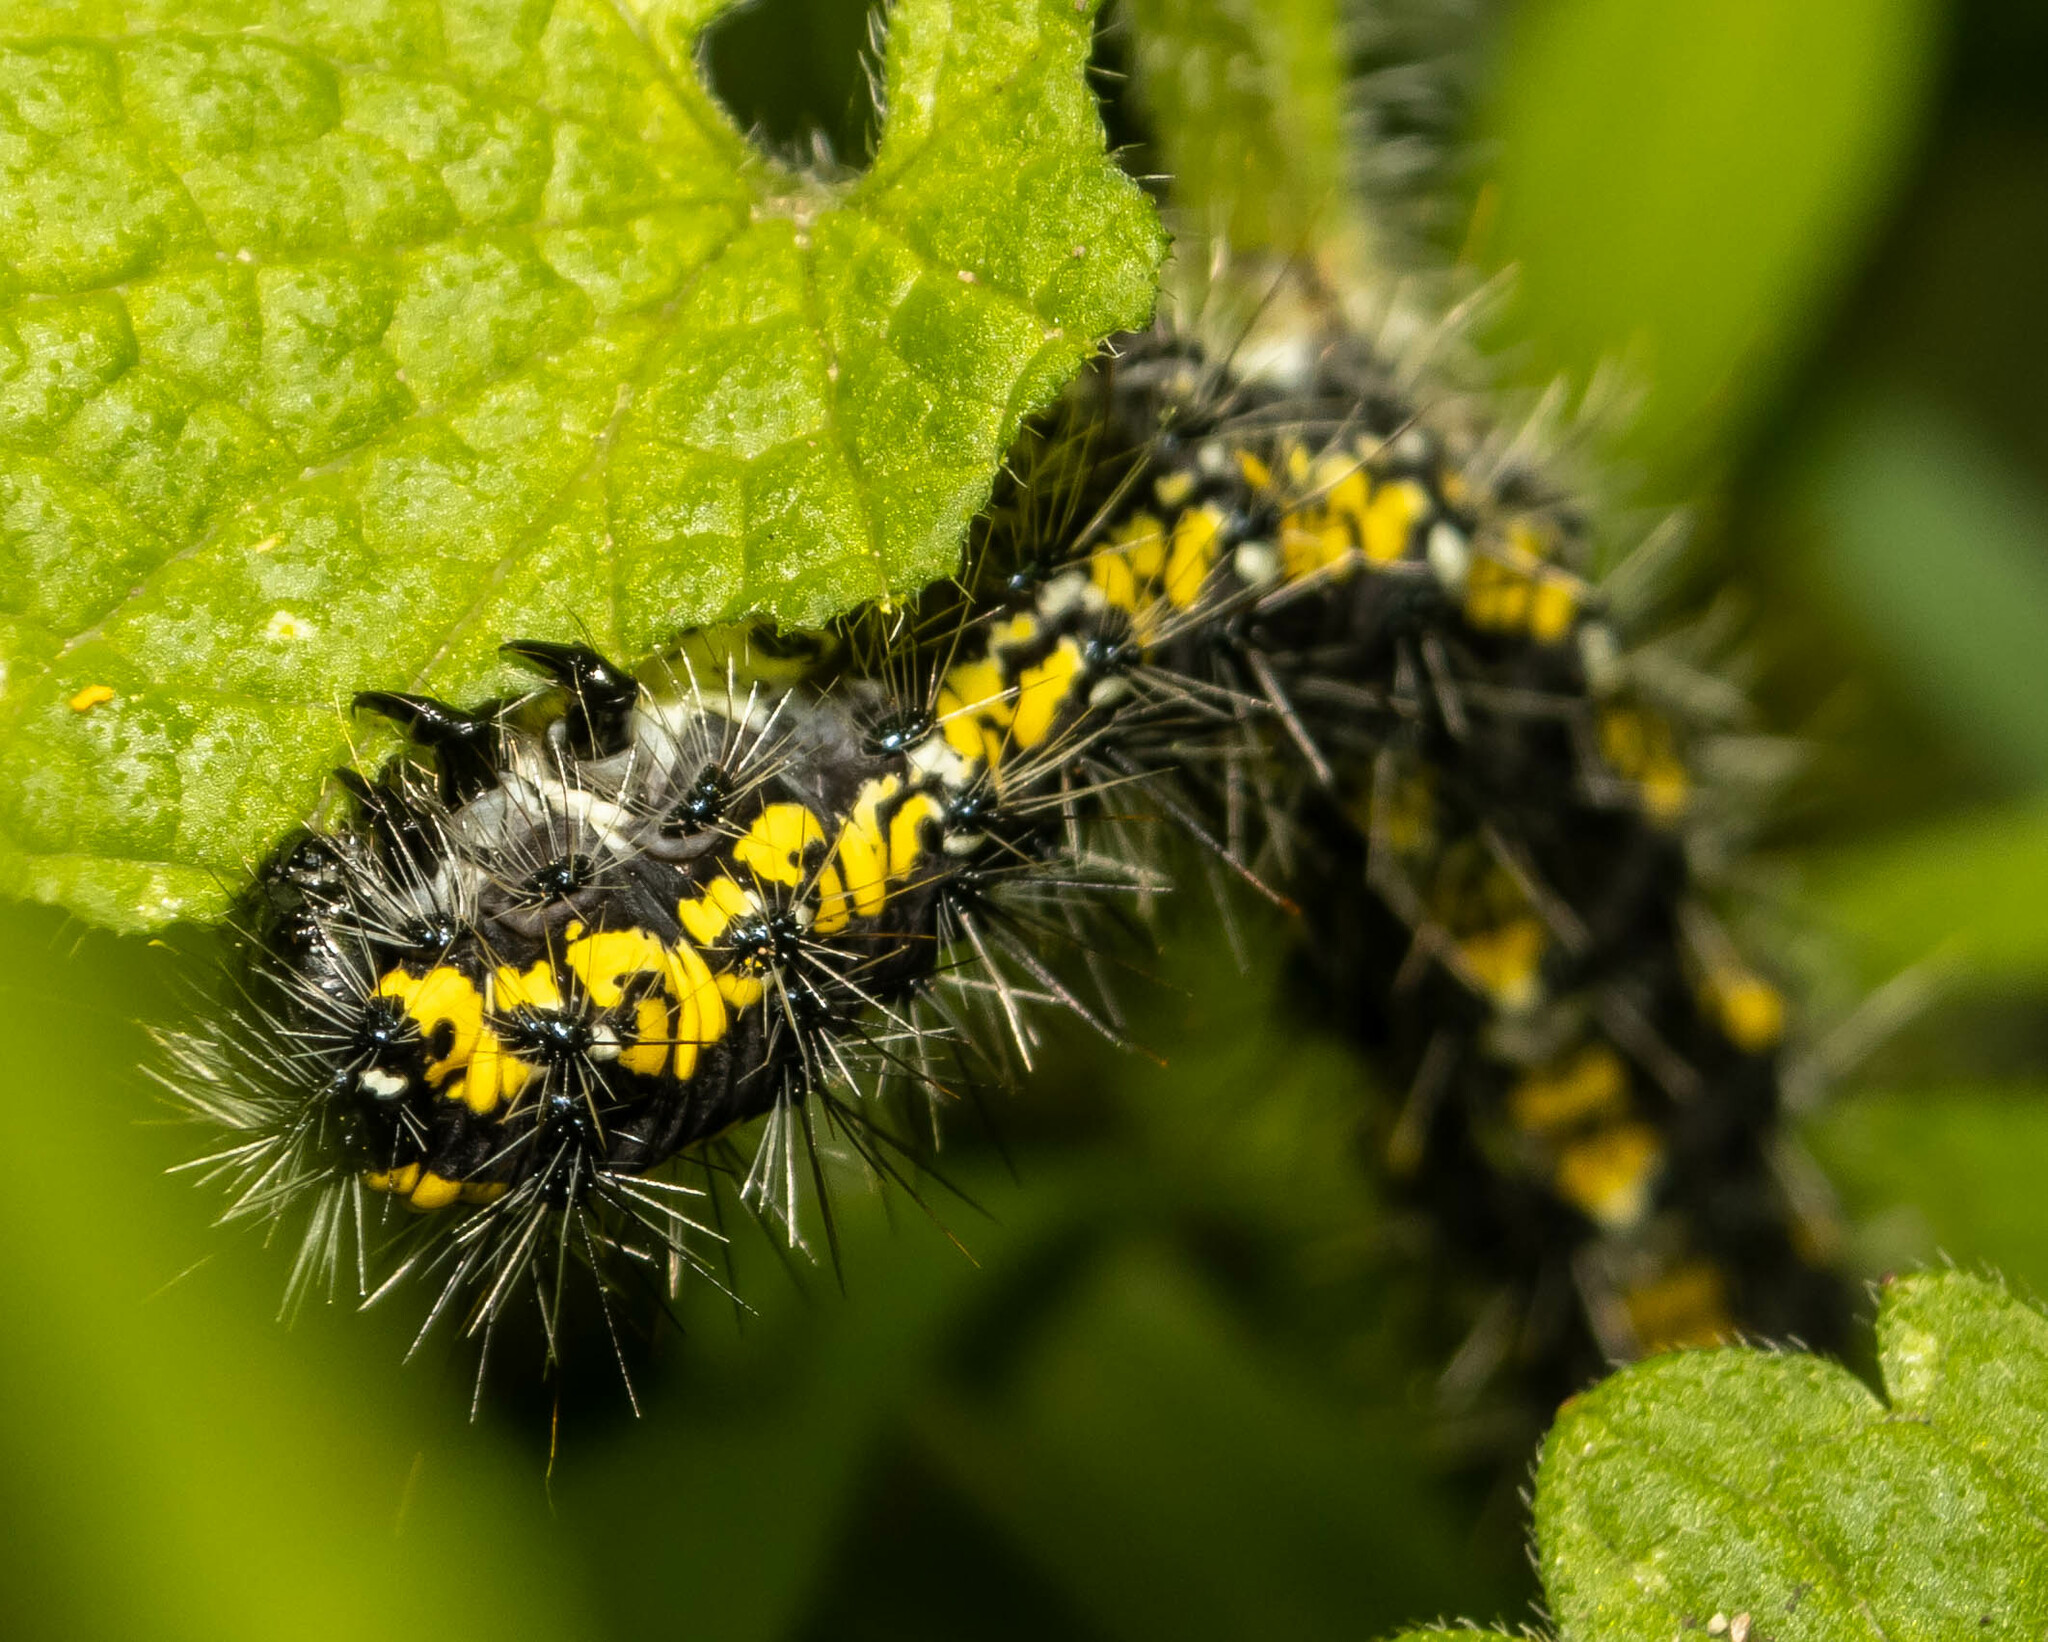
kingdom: Animalia
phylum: Arthropoda
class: Insecta
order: Lepidoptera
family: Erebidae
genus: Callimorpha
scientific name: Callimorpha dominula
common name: Scarlet tiger
